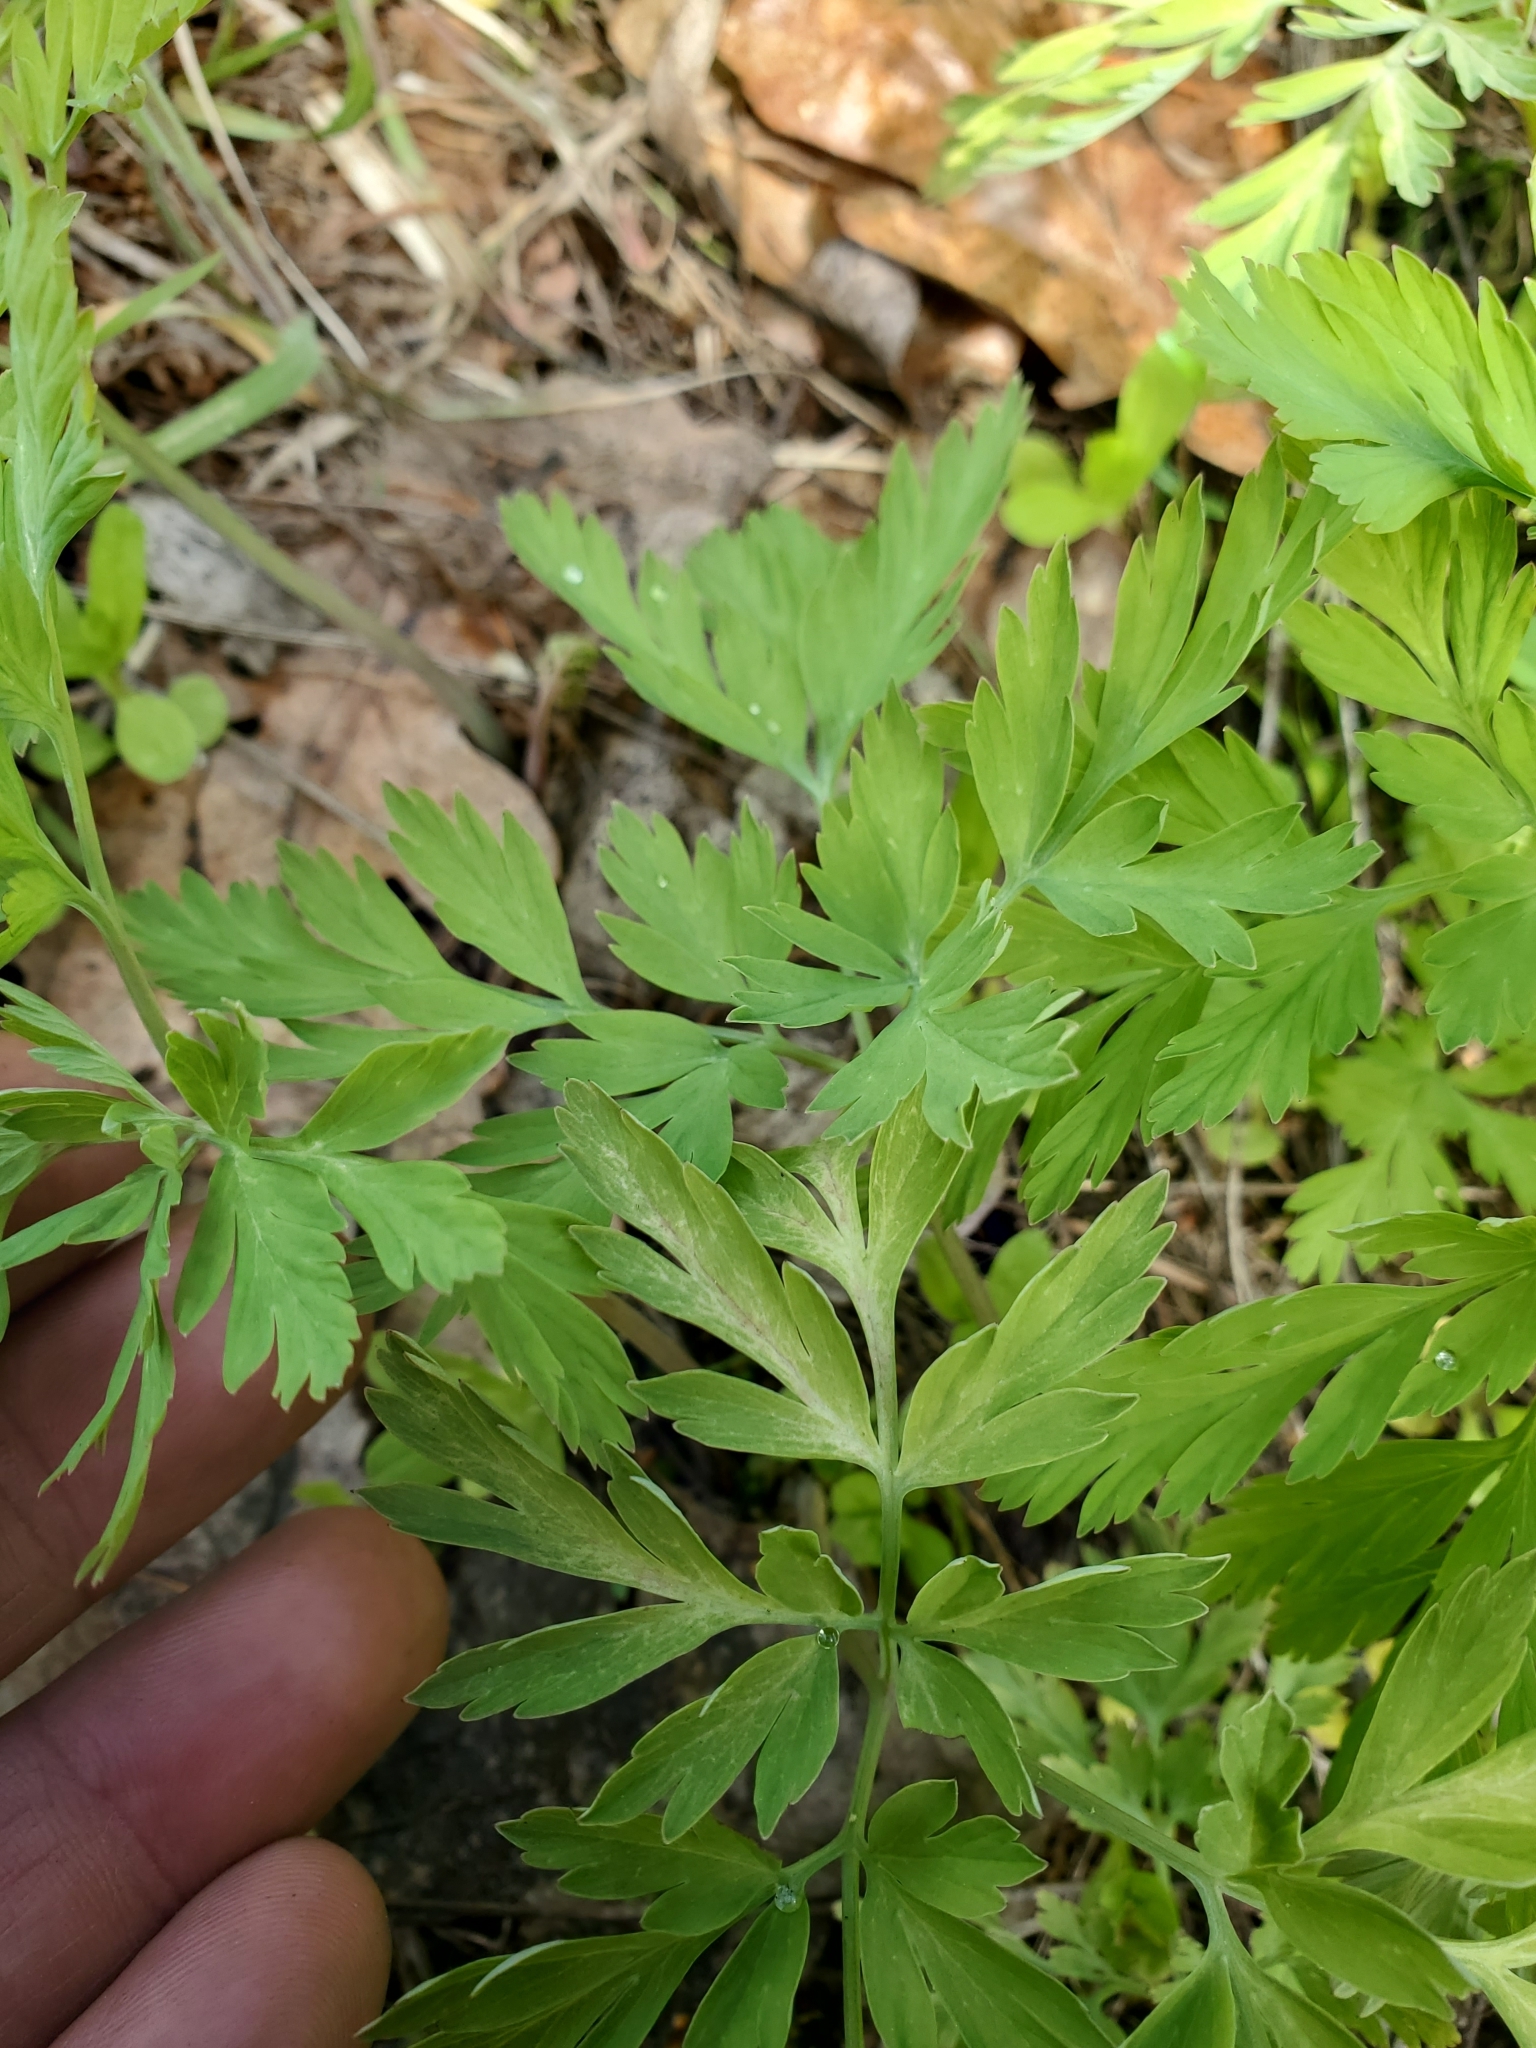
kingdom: Plantae
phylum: Tracheophyta
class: Magnoliopsida
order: Ranunculales
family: Papaveraceae
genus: Dicentra
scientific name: Dicentra formosa
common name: Bleeding-heart
